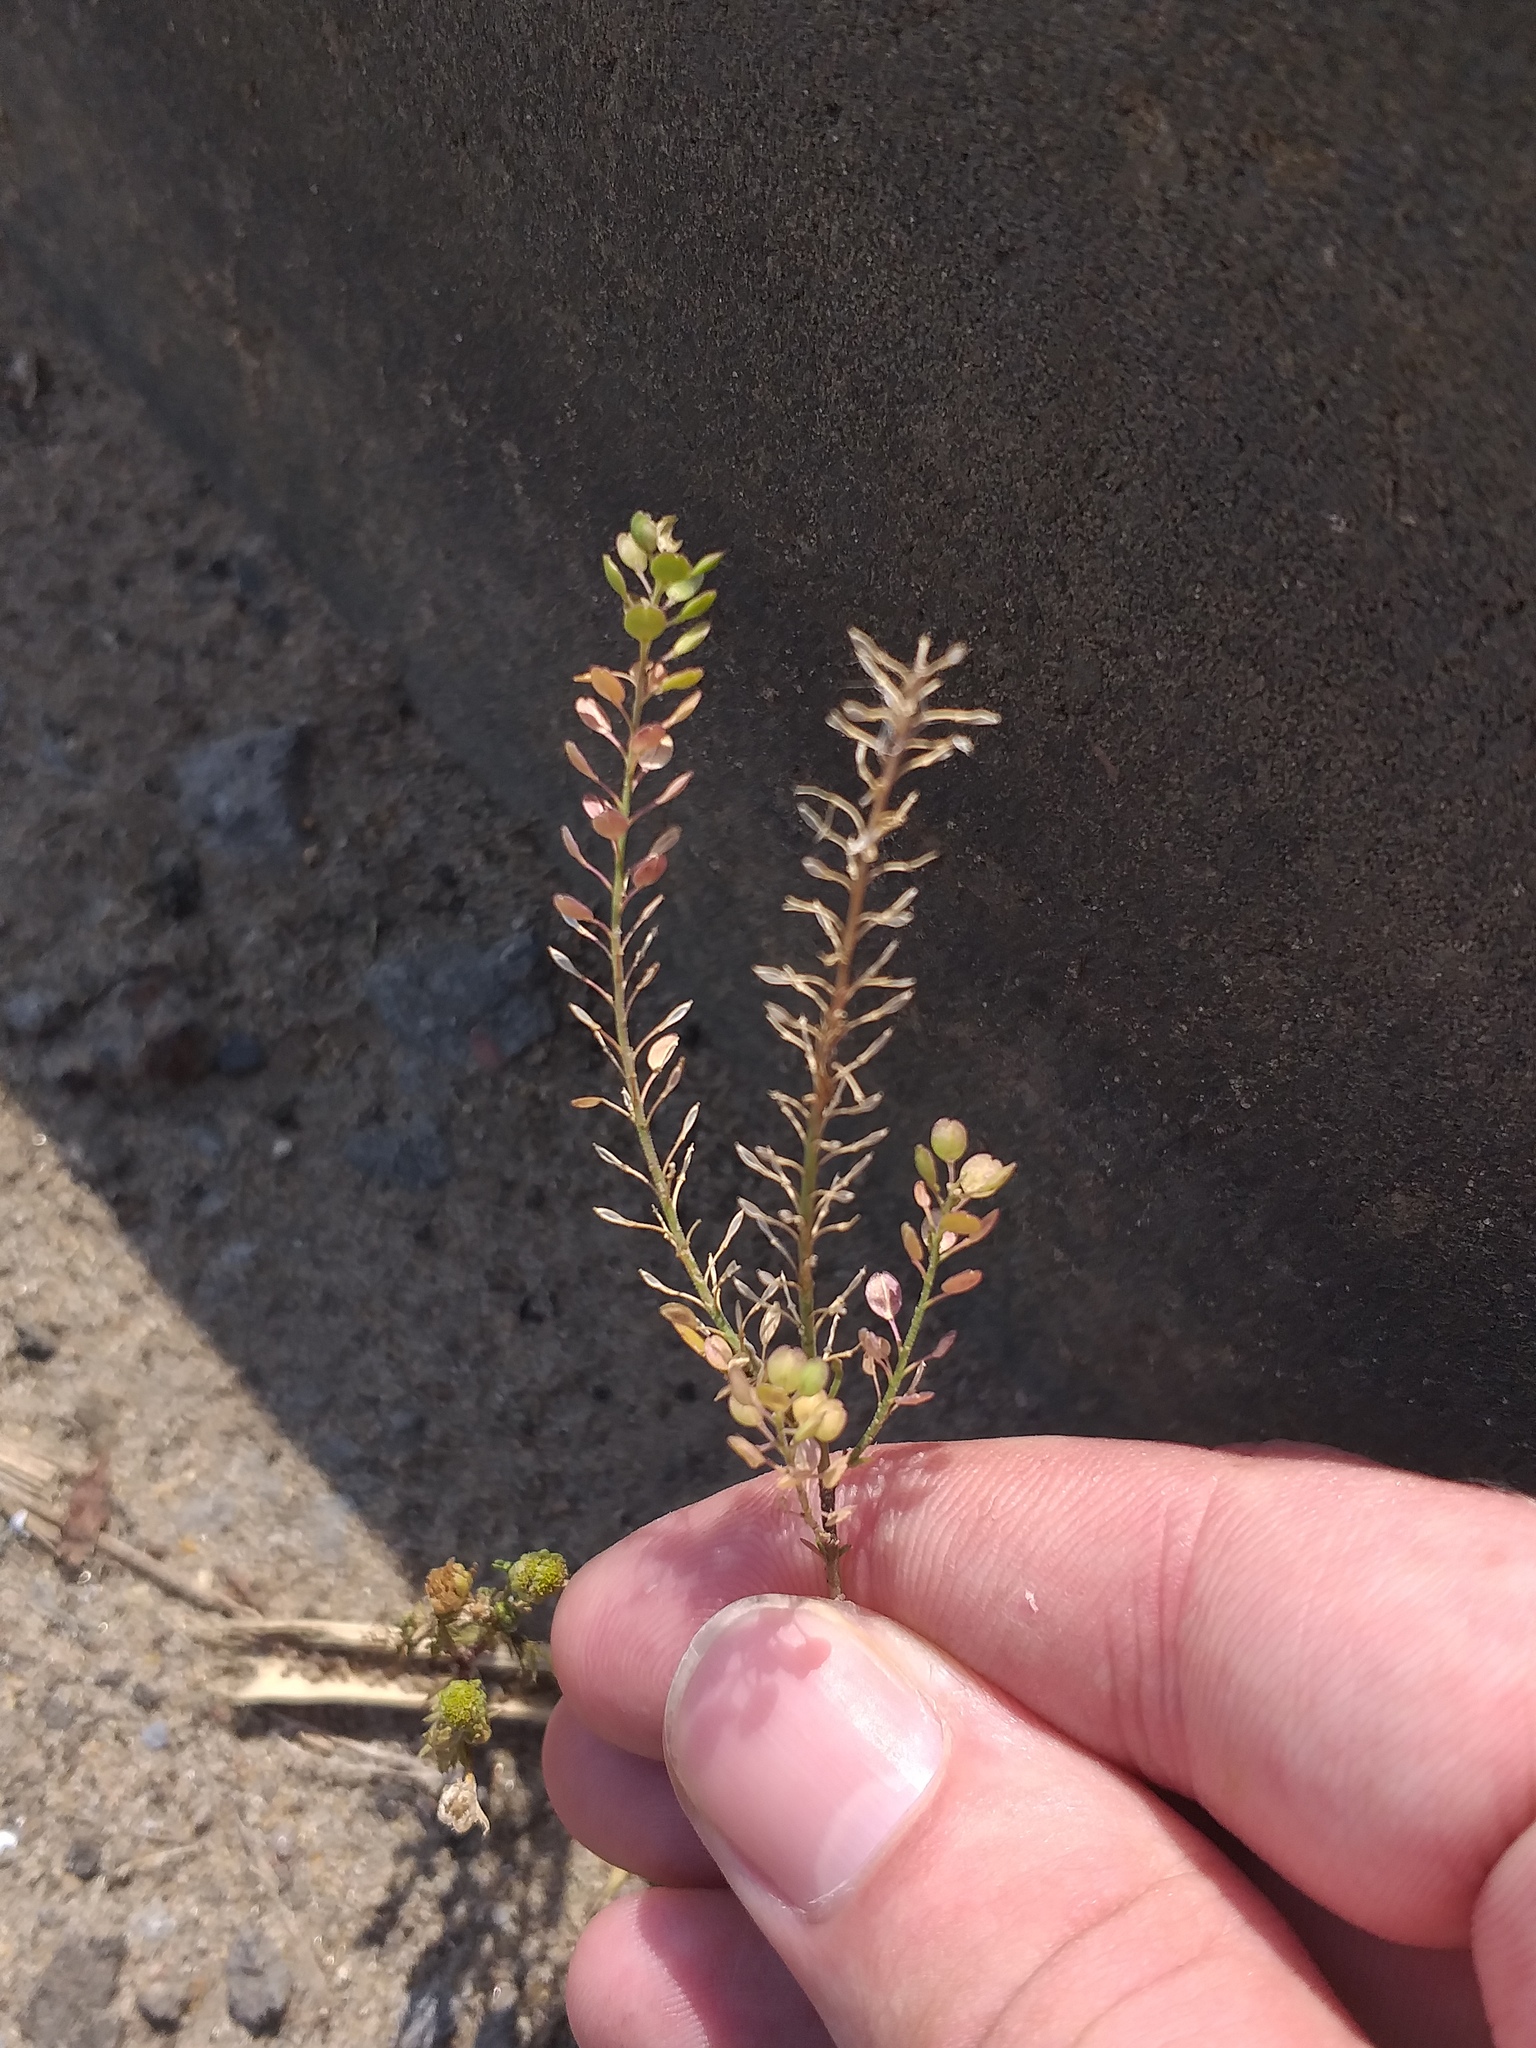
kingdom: Plantae
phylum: Tracheophyta
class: Magnoliopsida
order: Brassicales
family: Brassicaceae
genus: Lepidium
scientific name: Lepidium densiflorum
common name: Miner's pepperwort
